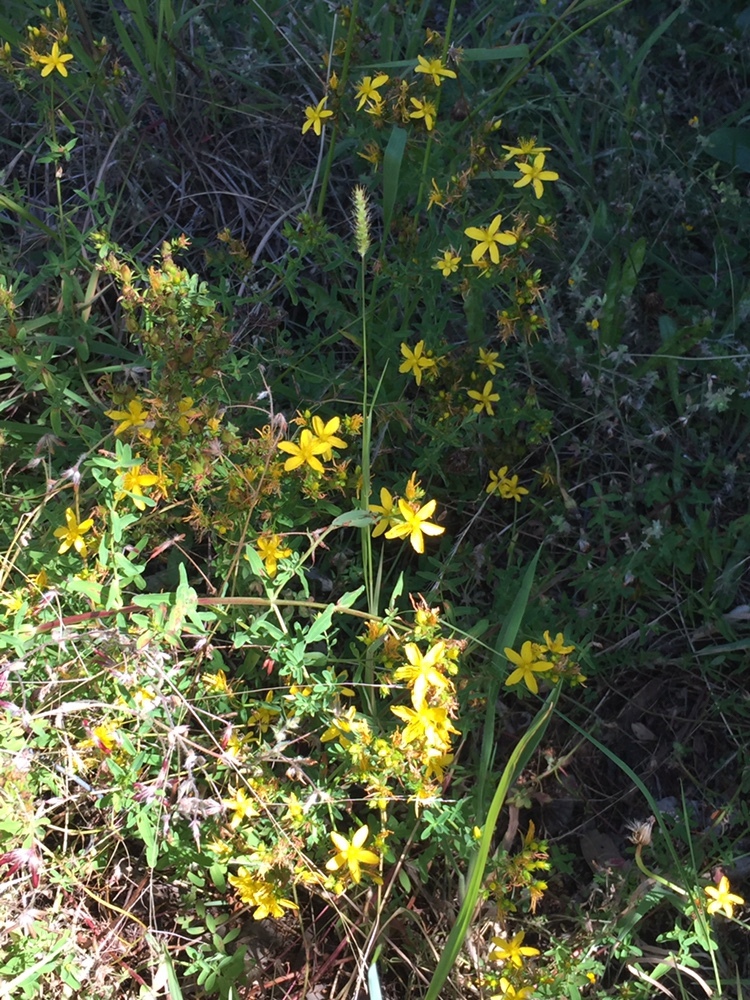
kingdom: Plantae
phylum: Tracheophyta
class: Magnoliopsida
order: Malpighiales
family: Hypericaceae
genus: Hypericum
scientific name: Hypericum perforatum
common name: Common st. johnswort
